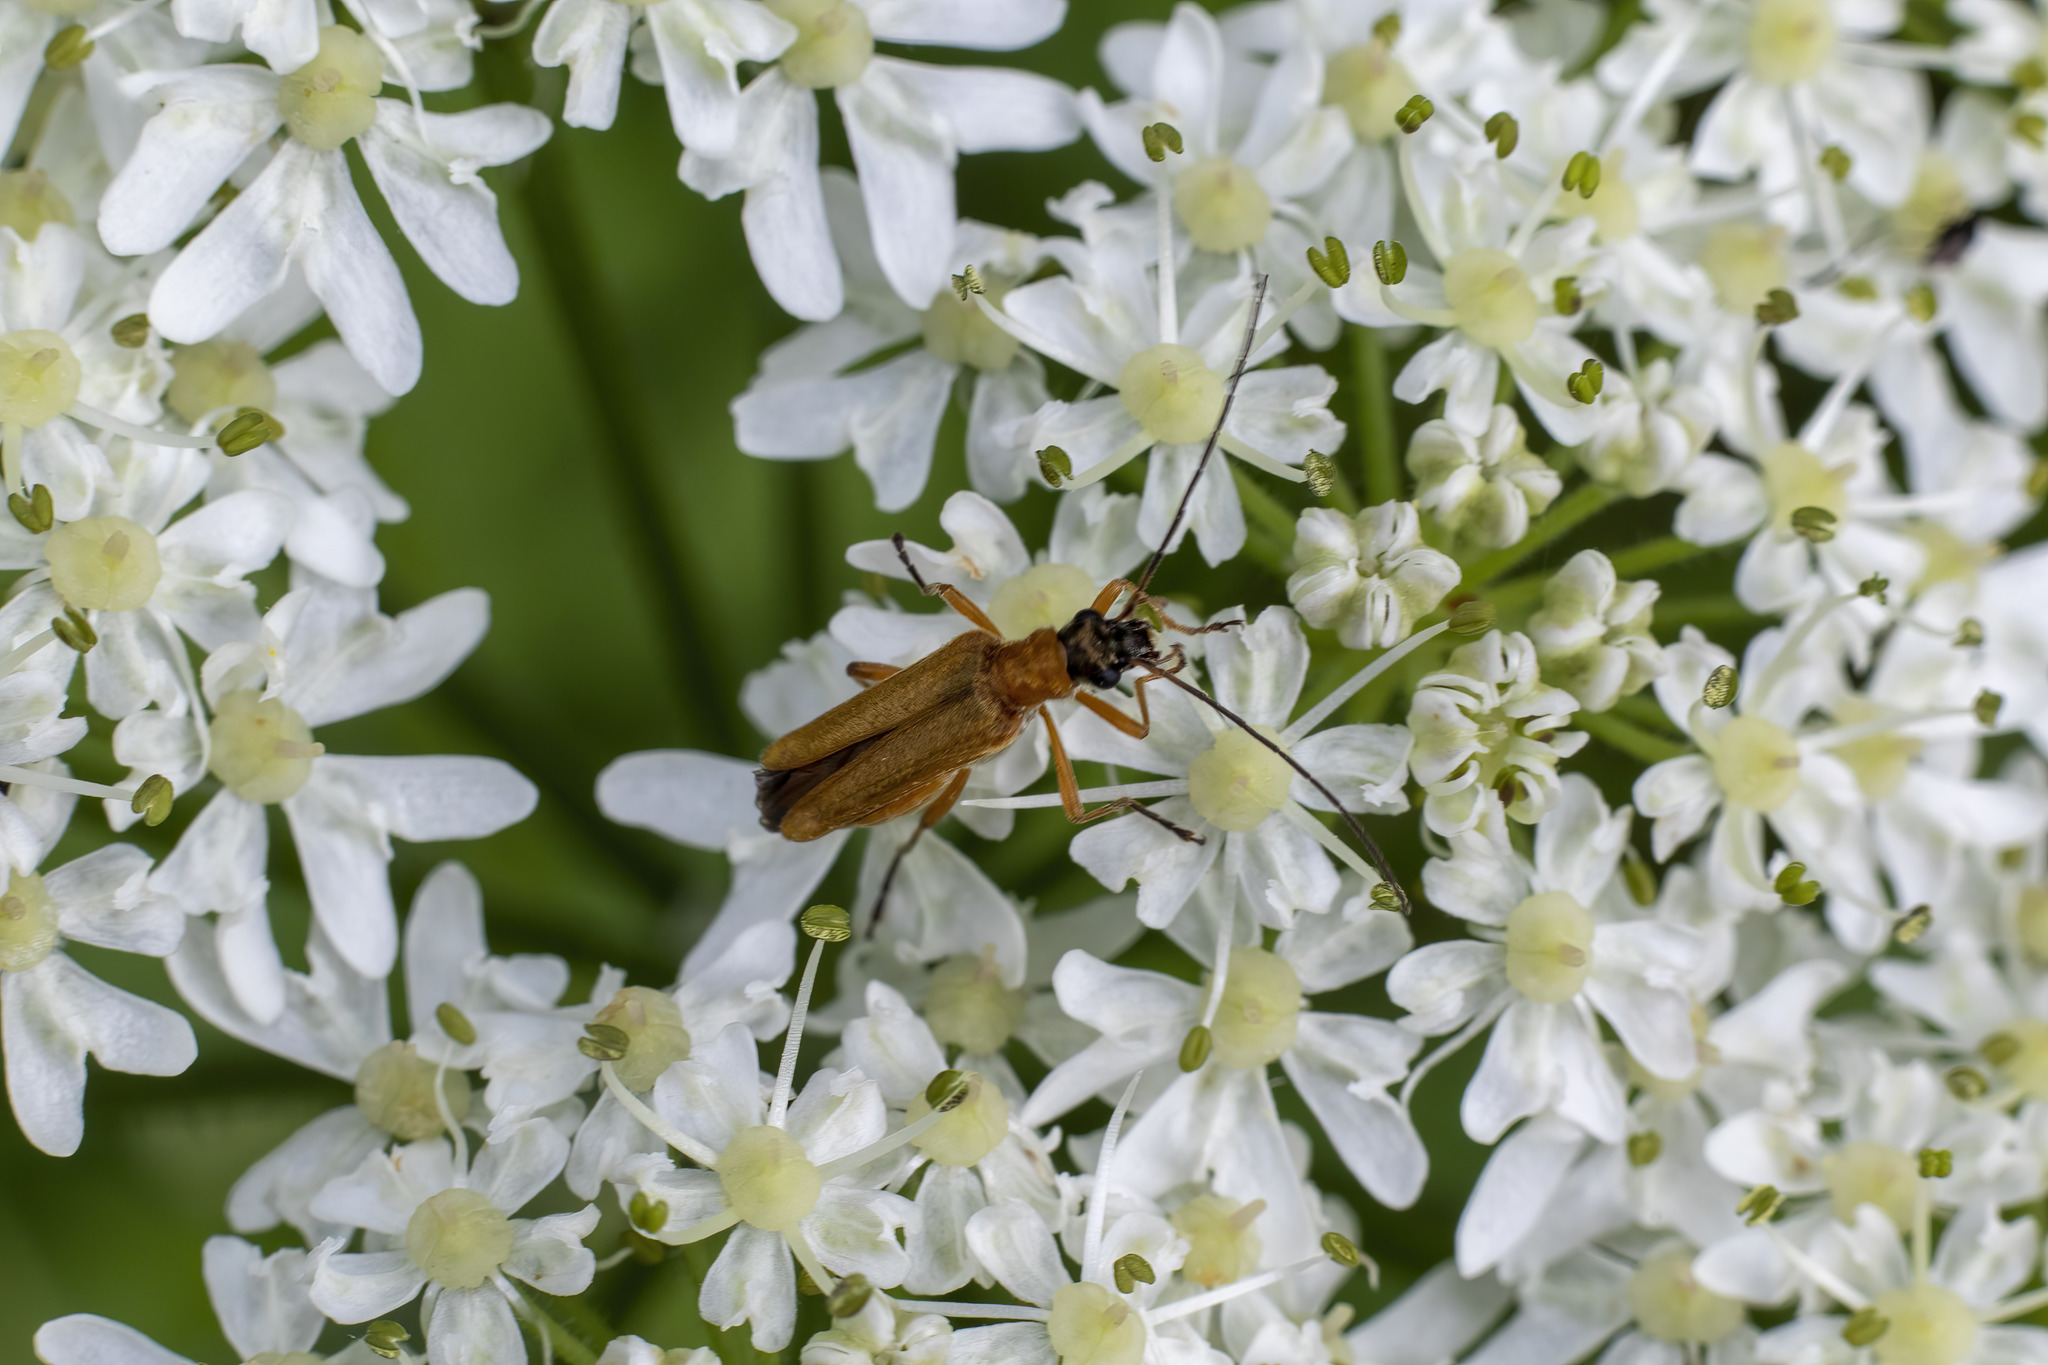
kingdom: Animalia
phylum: Arthropoda
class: Insecta
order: Coleoptera
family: Oedemeridae
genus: Oedemera
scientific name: Oedemera podagrariae
